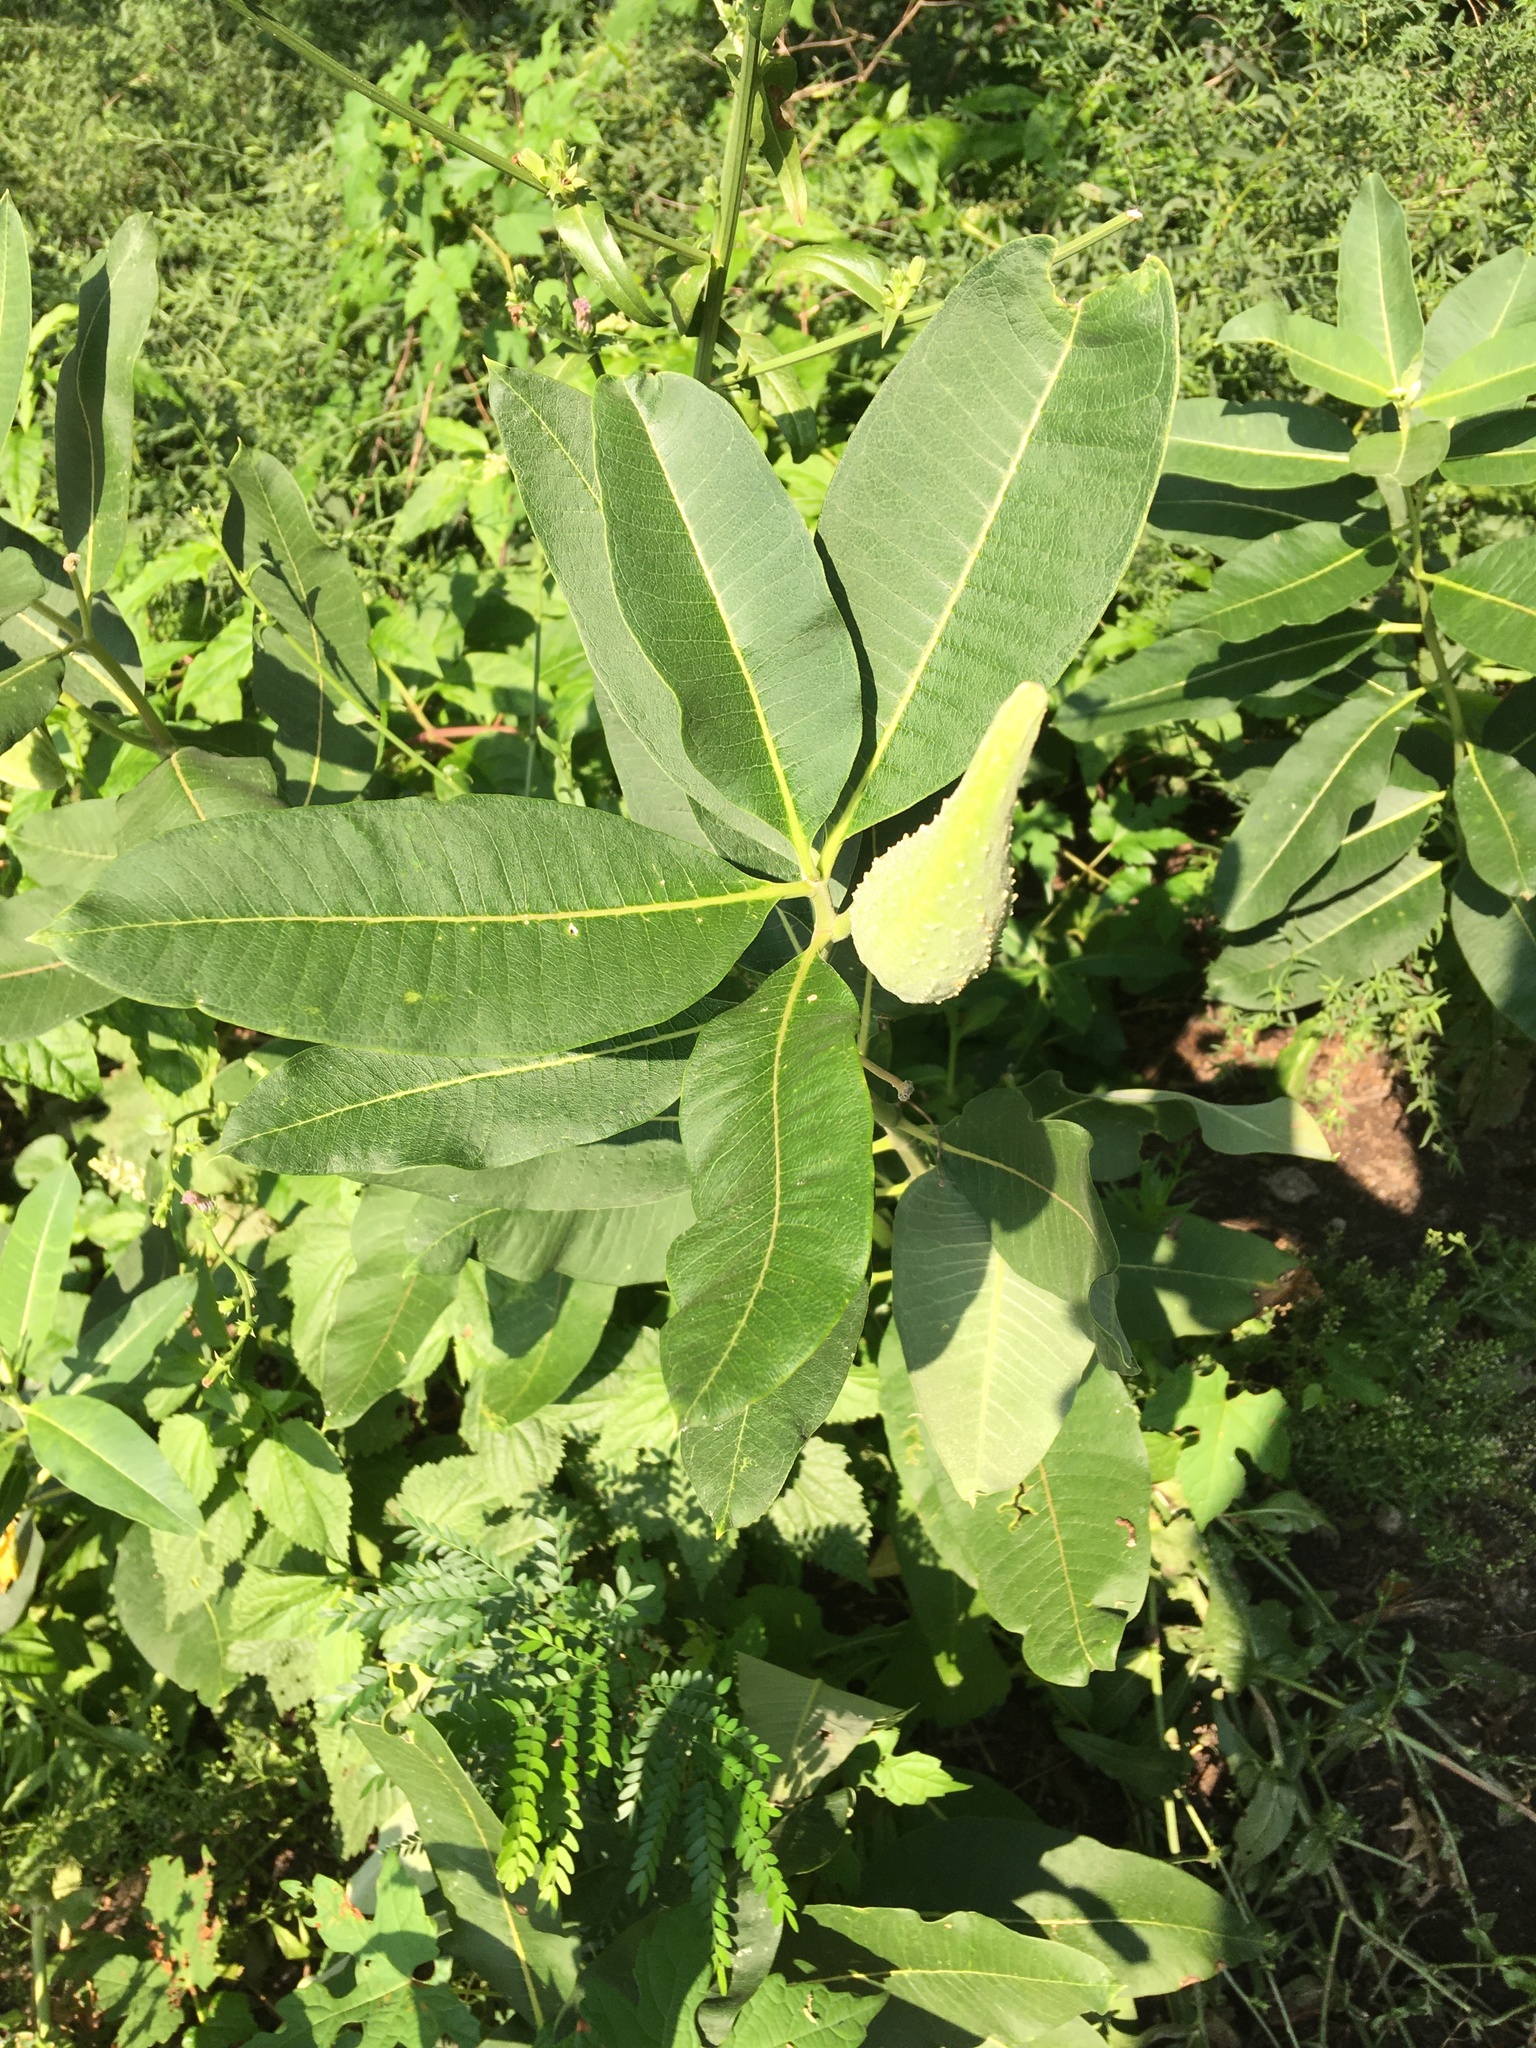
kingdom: Plantae
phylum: Tracheophyta
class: Magnoliopsida
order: Gentianales
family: Apocynaceae
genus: Asclepias
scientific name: Asclepias syriaca
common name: Common milkweed
